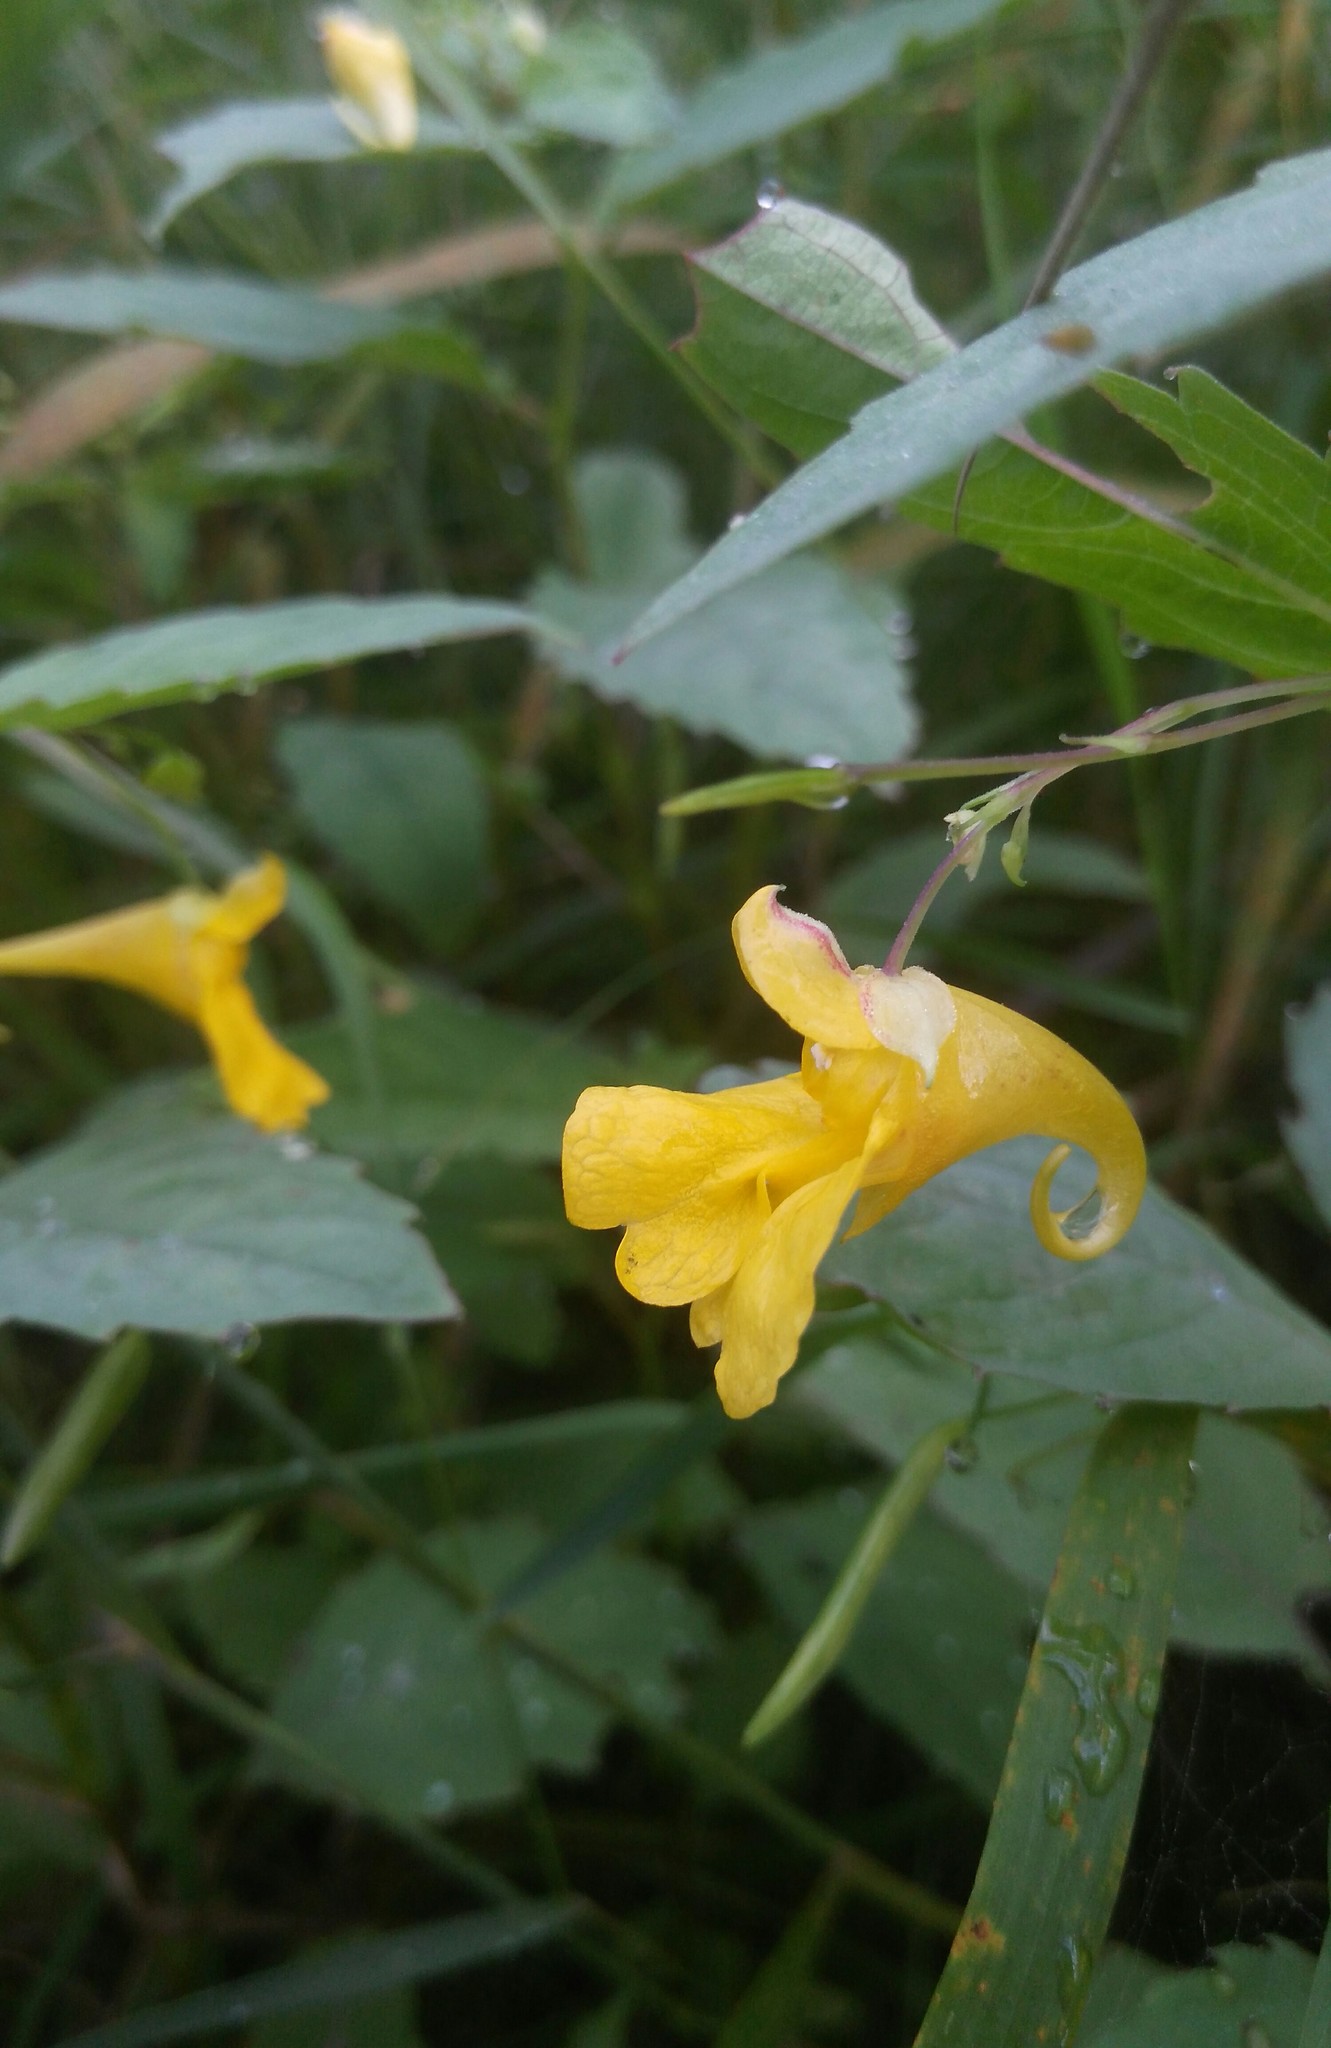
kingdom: Plantae
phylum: Tracheophyta
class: Magnoliopsida
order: Ericales
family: Balsaminaceae
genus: Impatiens
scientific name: Impatiens noli-tangere
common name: Touch-me-not balsam
